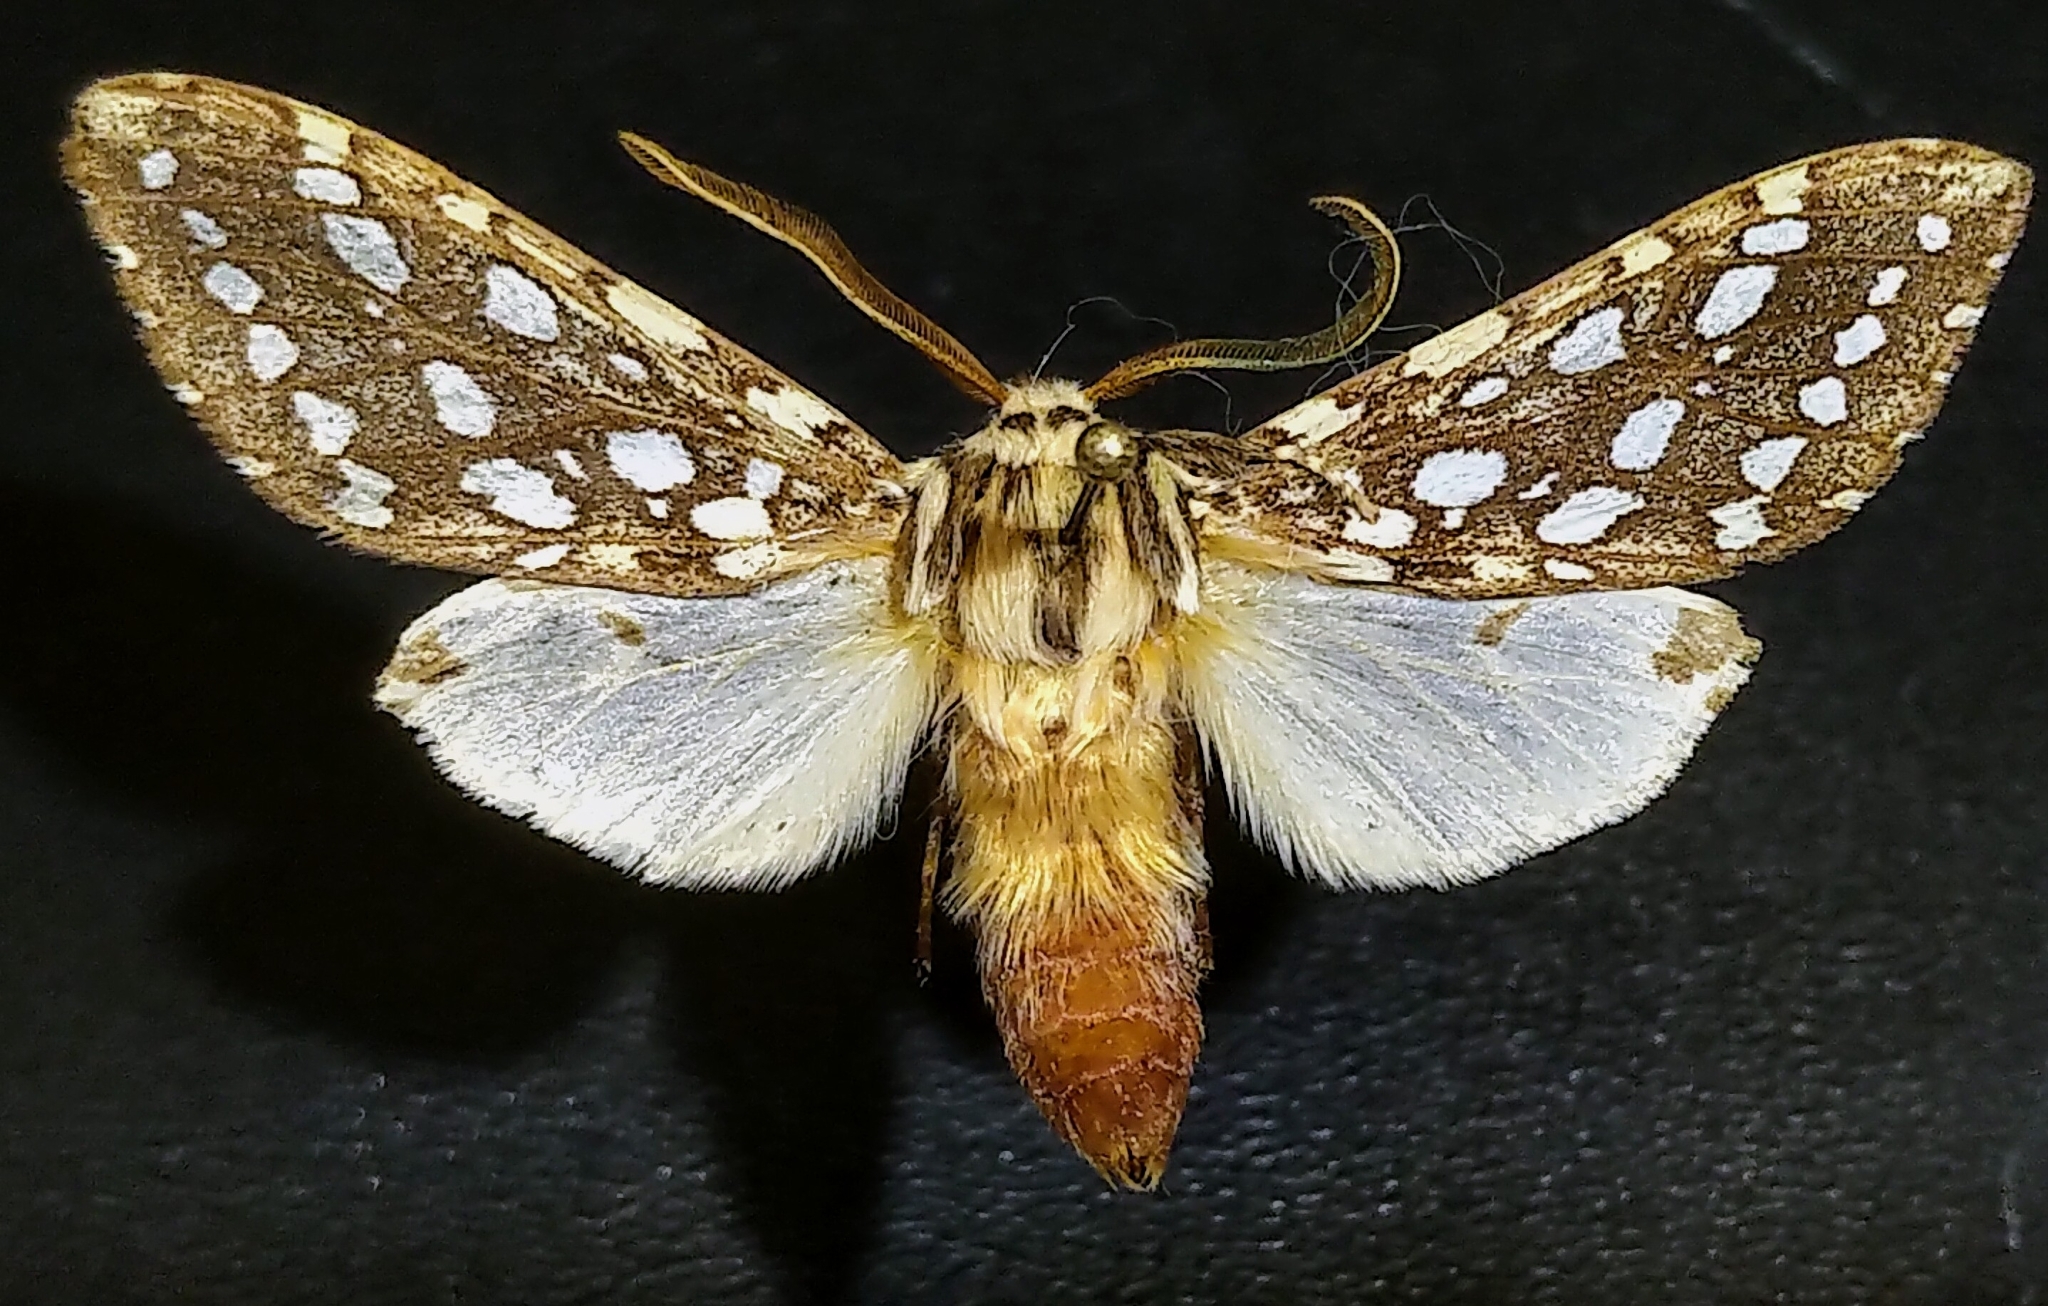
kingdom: Animalia
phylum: Arthropoda
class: Insecta
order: Lepidoptera
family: Erebidae
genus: Lophocampa
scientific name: Lophocampa argentata
